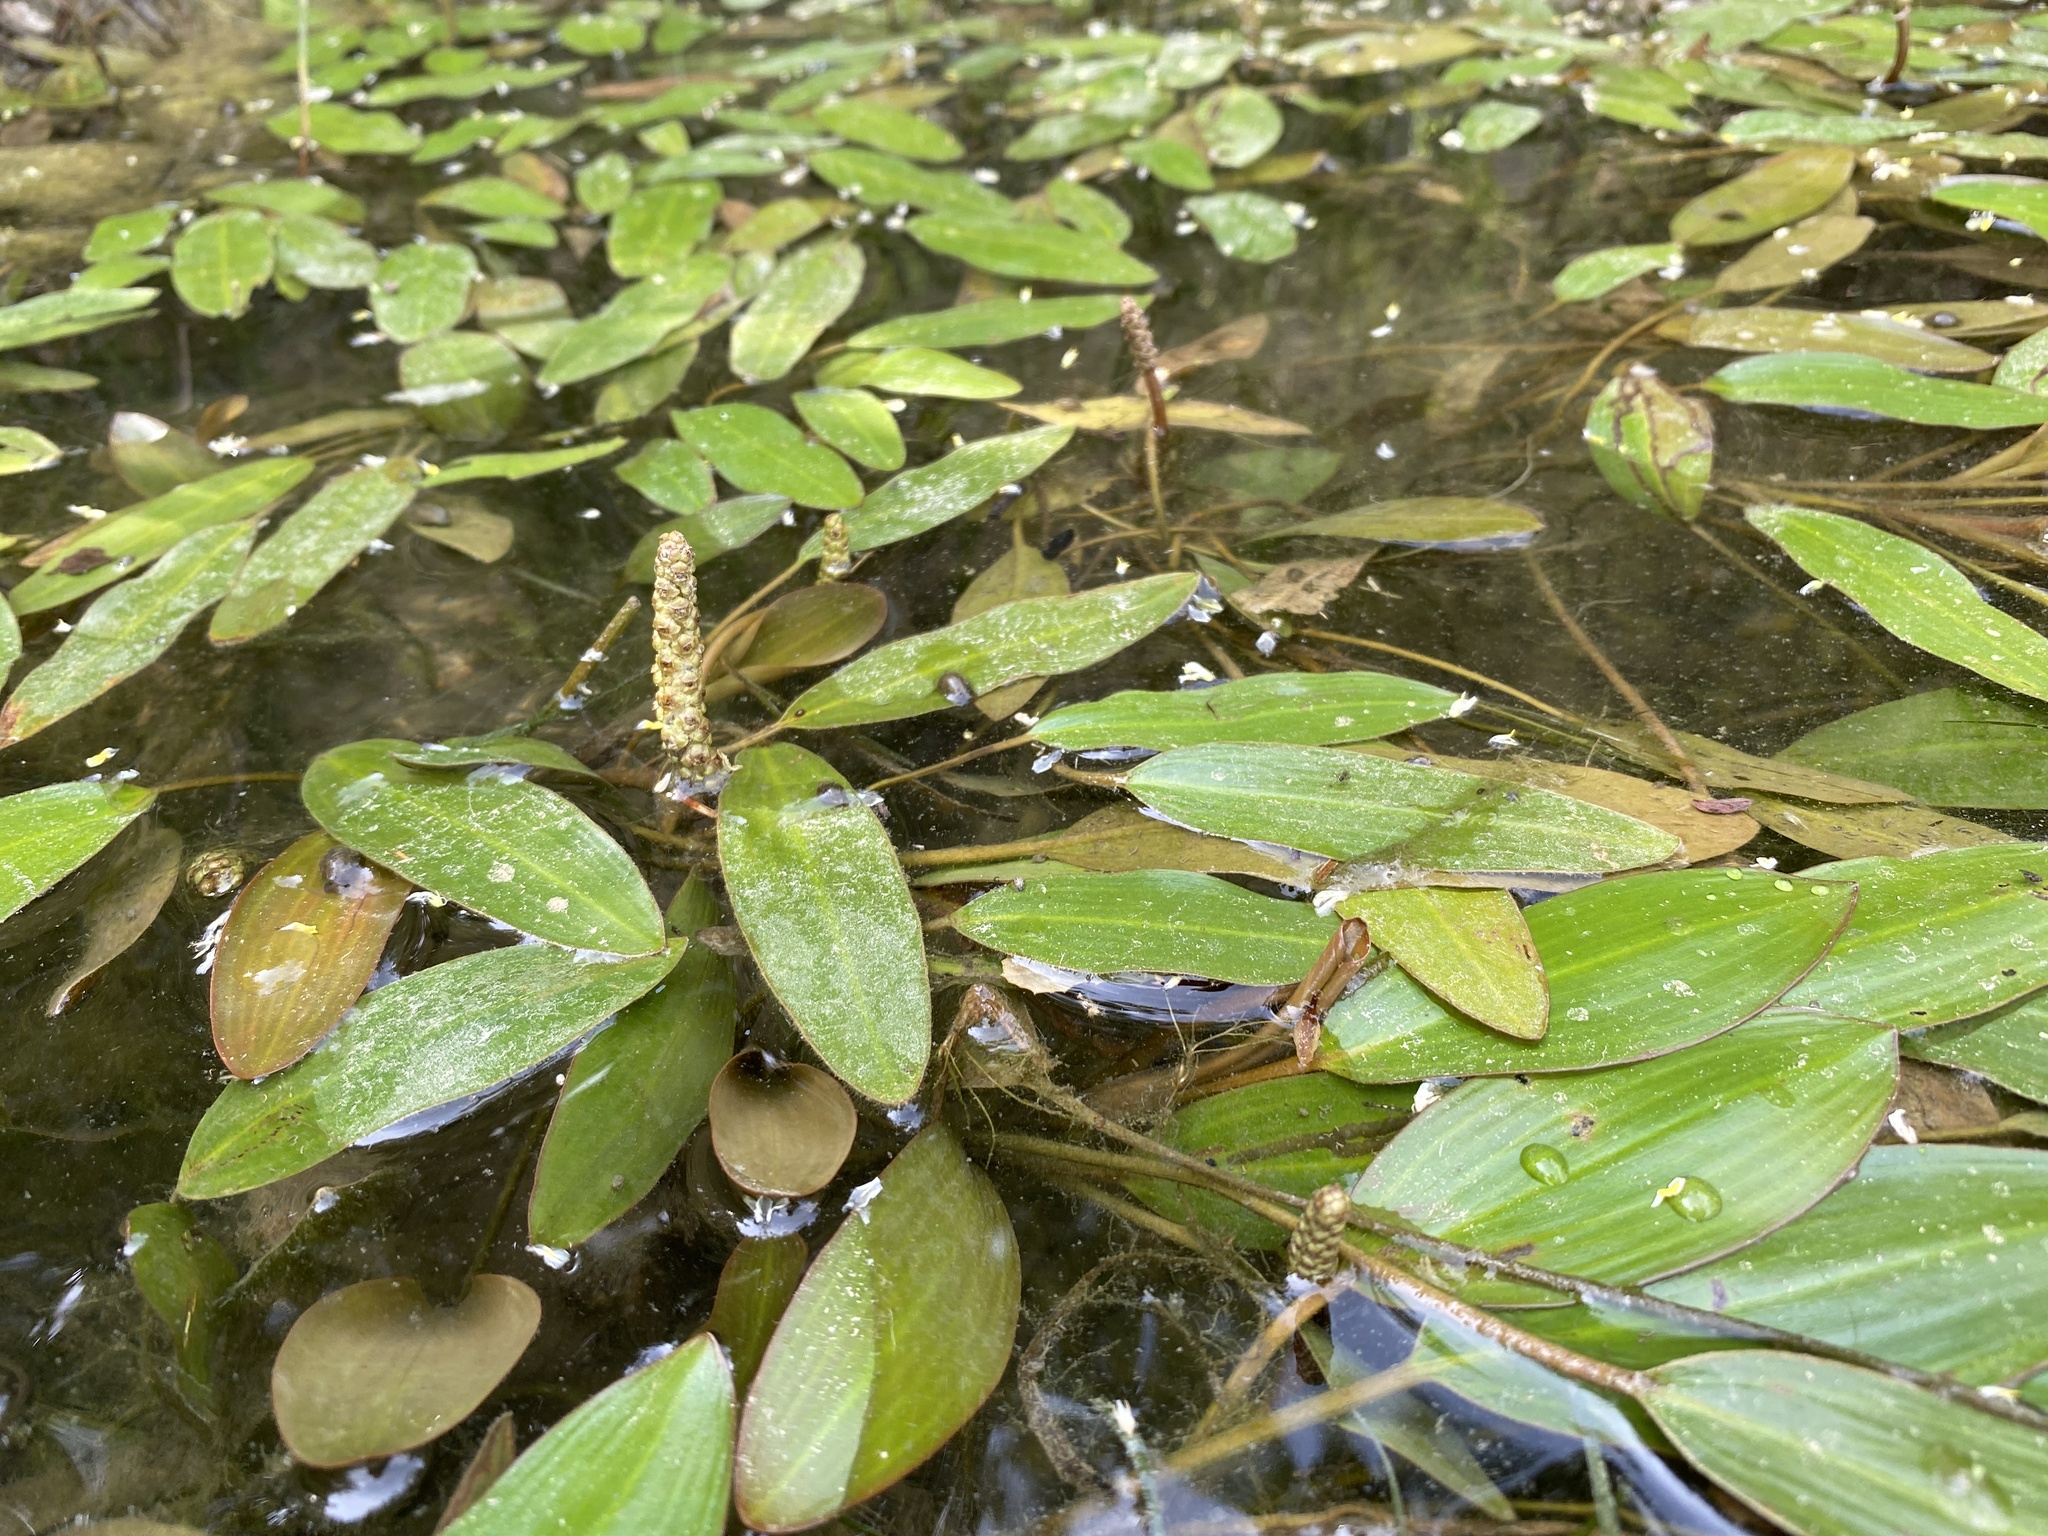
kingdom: Plantae
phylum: Tracheophyta
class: Liliopsida
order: Alismatales
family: Potamogetonaceae
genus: Potamogeton
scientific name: Potamogeton nodosus
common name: Loddon pondweed
